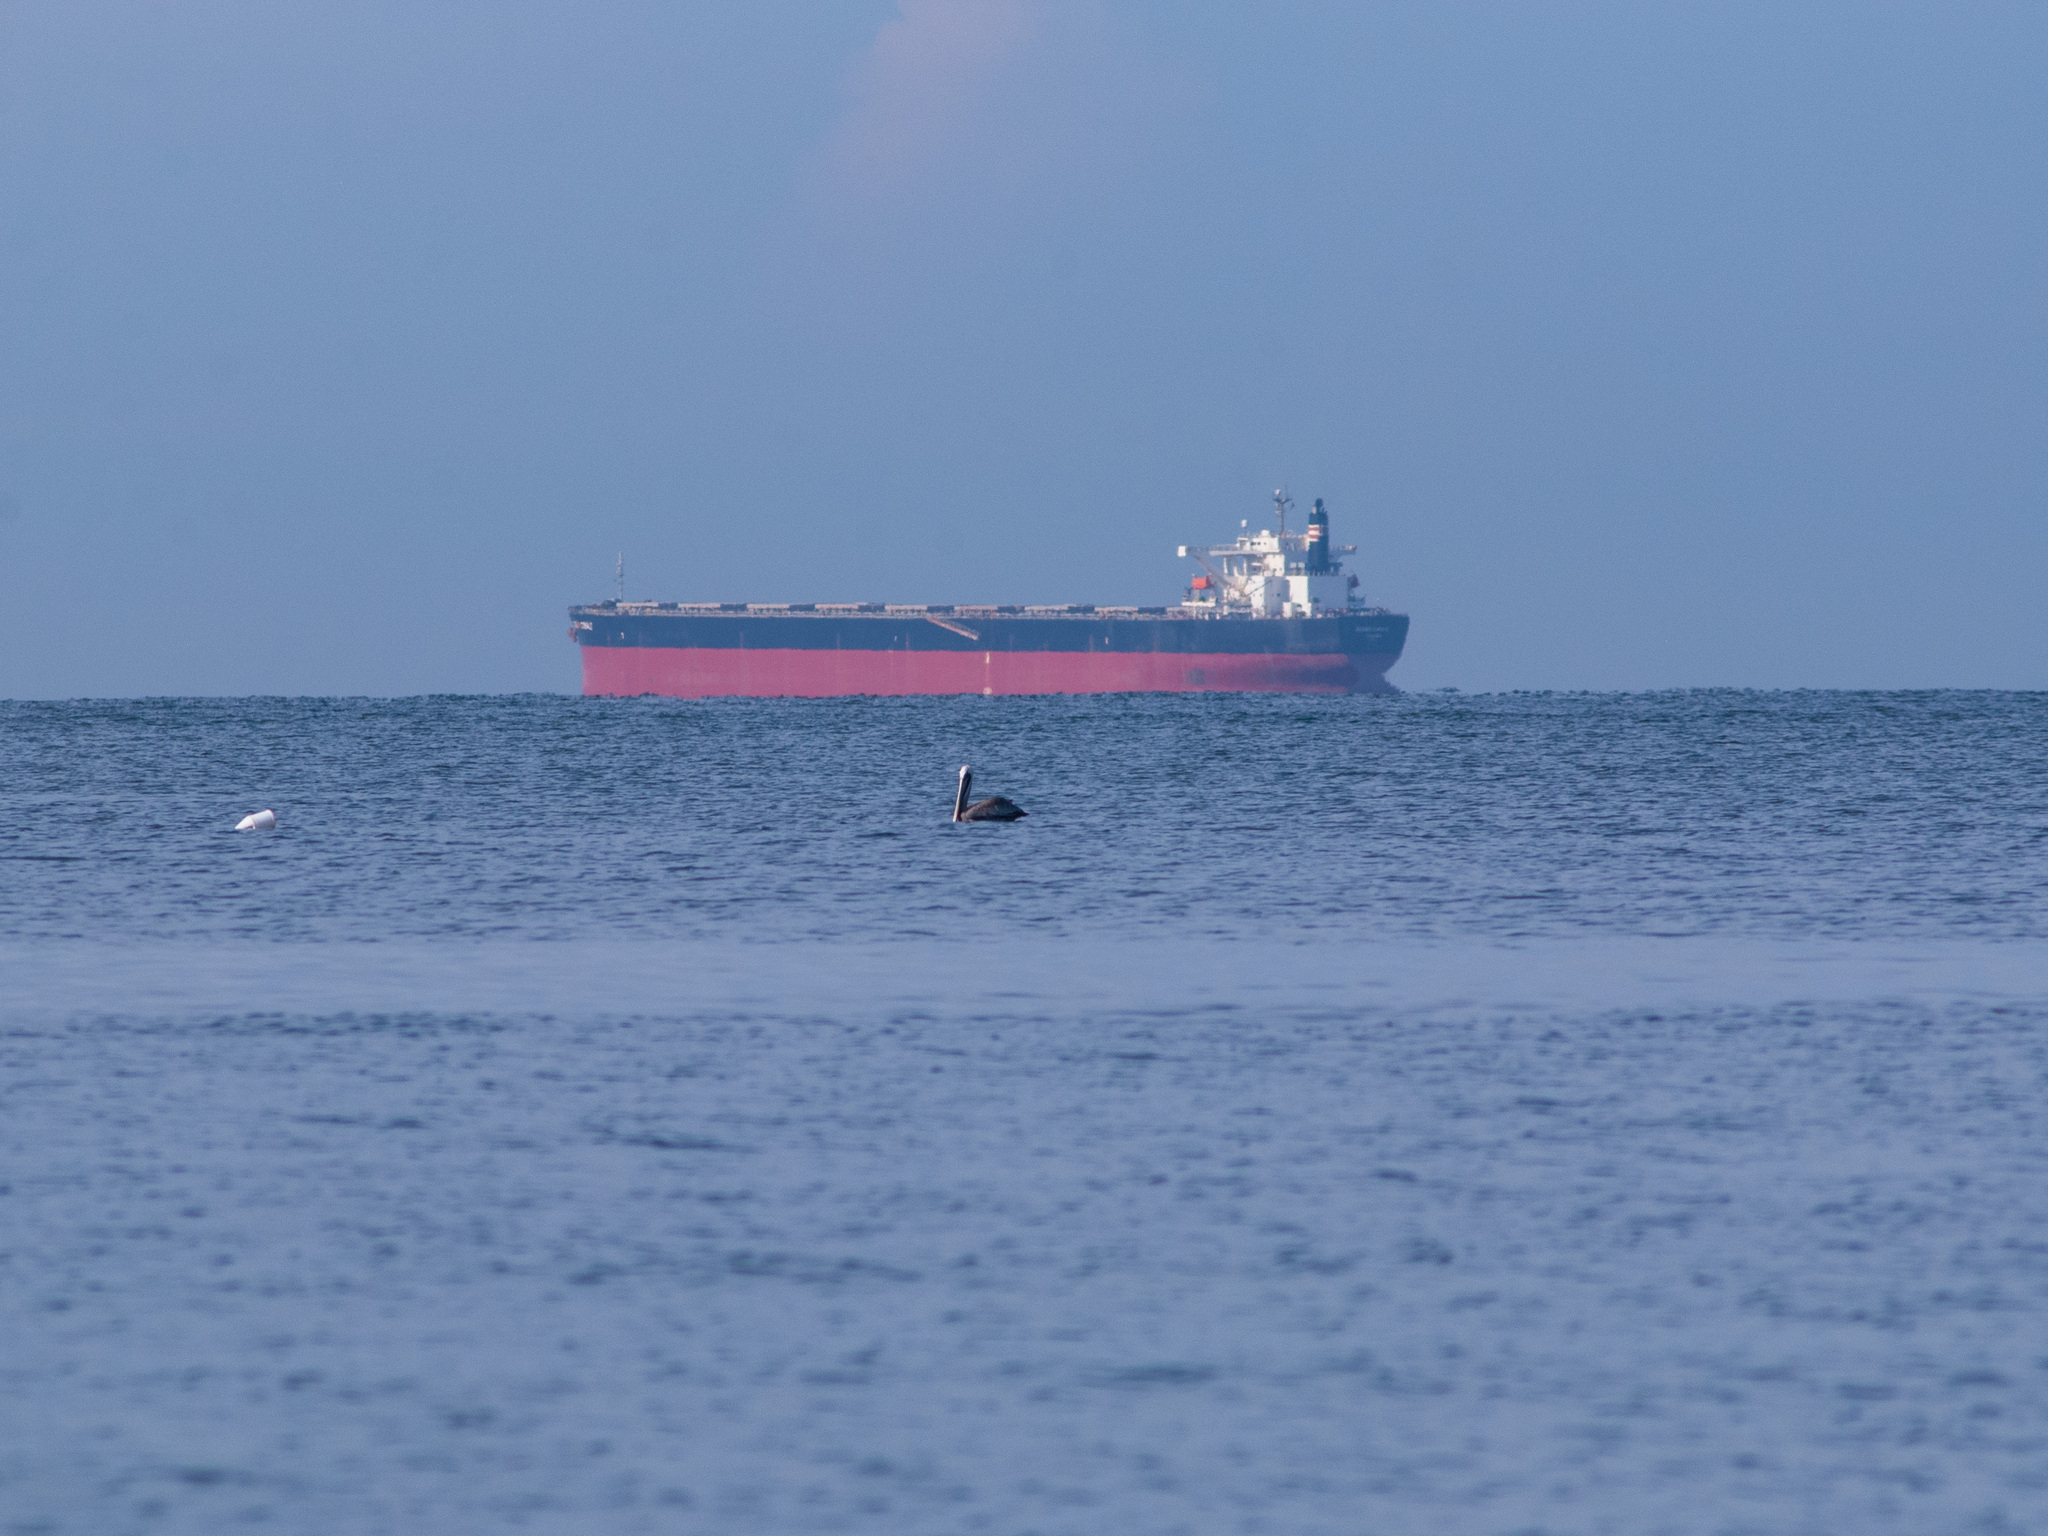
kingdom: Animalia
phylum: Chordata
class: Aves
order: Pelecaniformes
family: Pelecanidae
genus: Pelecanus
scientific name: Pelecanus occidentalis
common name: Brown pelican
